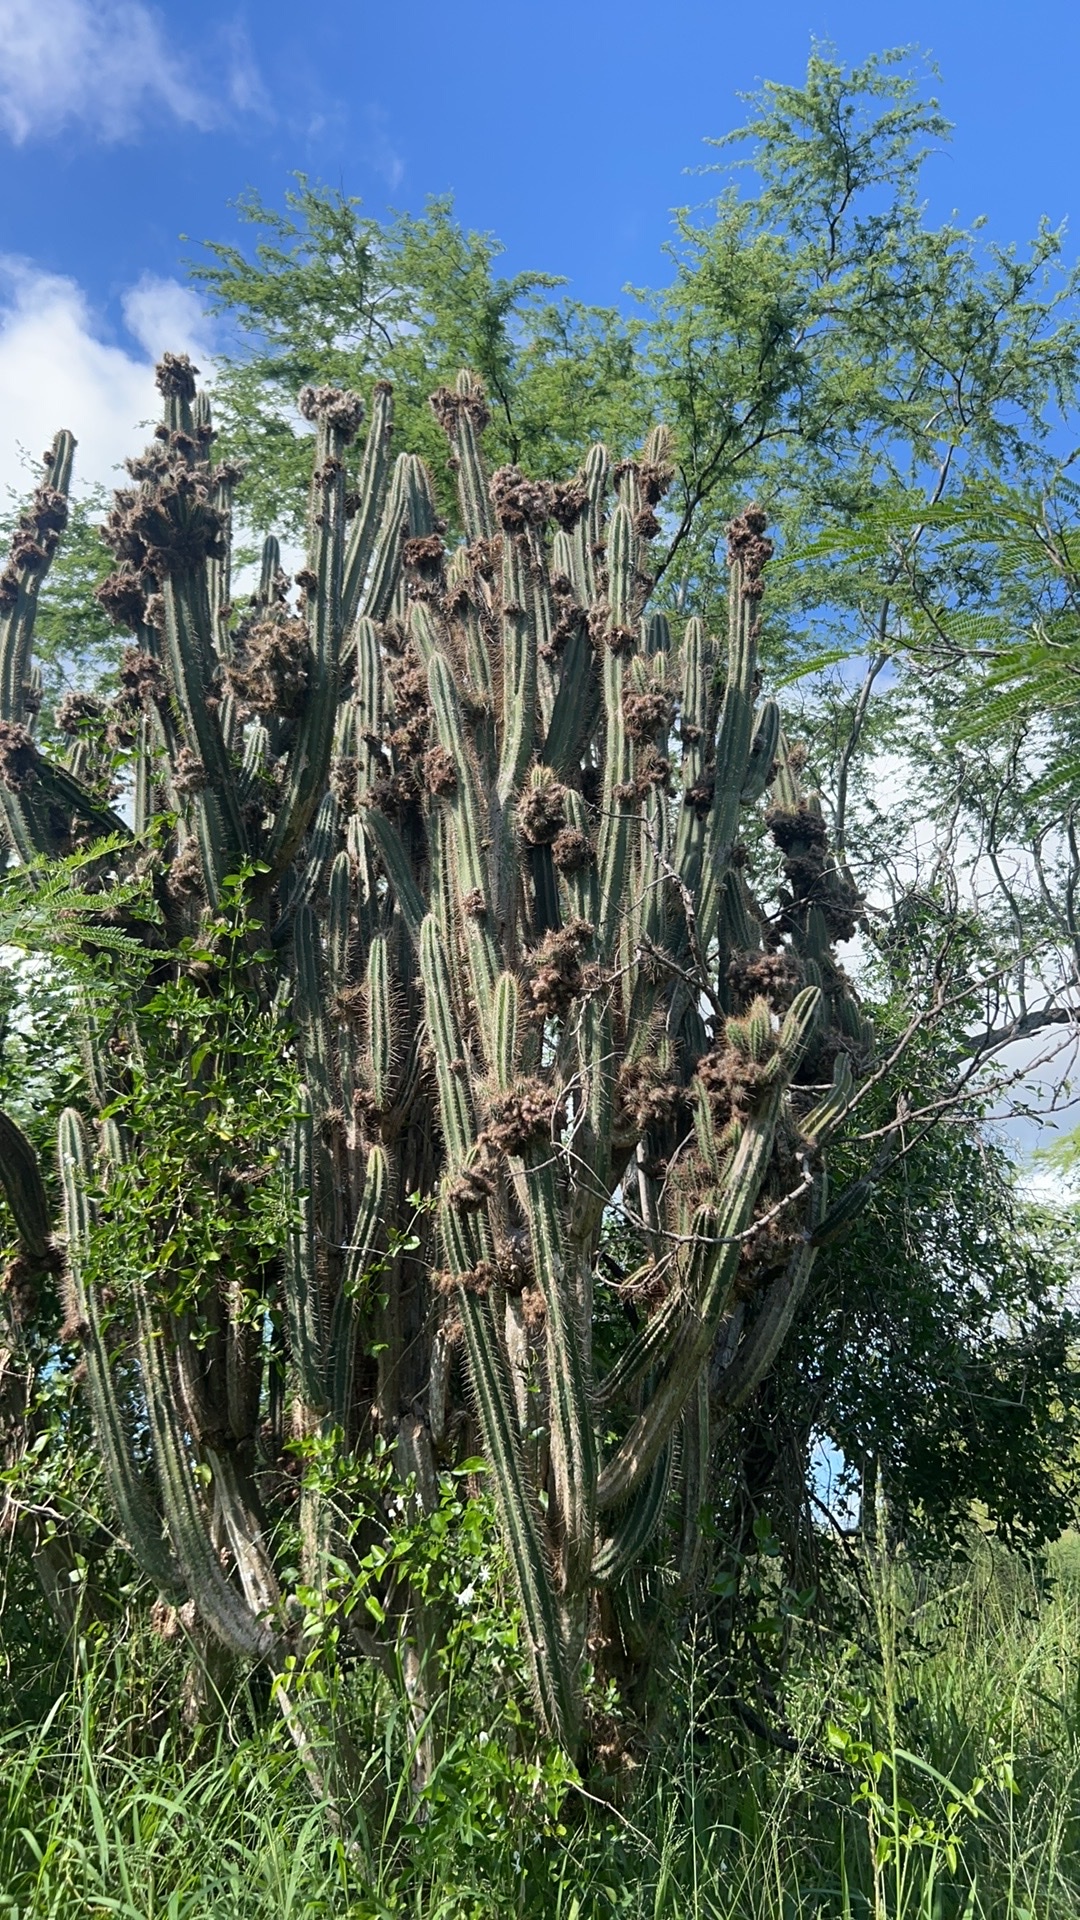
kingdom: Plantae
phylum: Tracheophyta
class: Magnoliopsida
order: Caryophyllales
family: Cactaceae
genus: Pilosocereus
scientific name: Pilosocereus armatus
